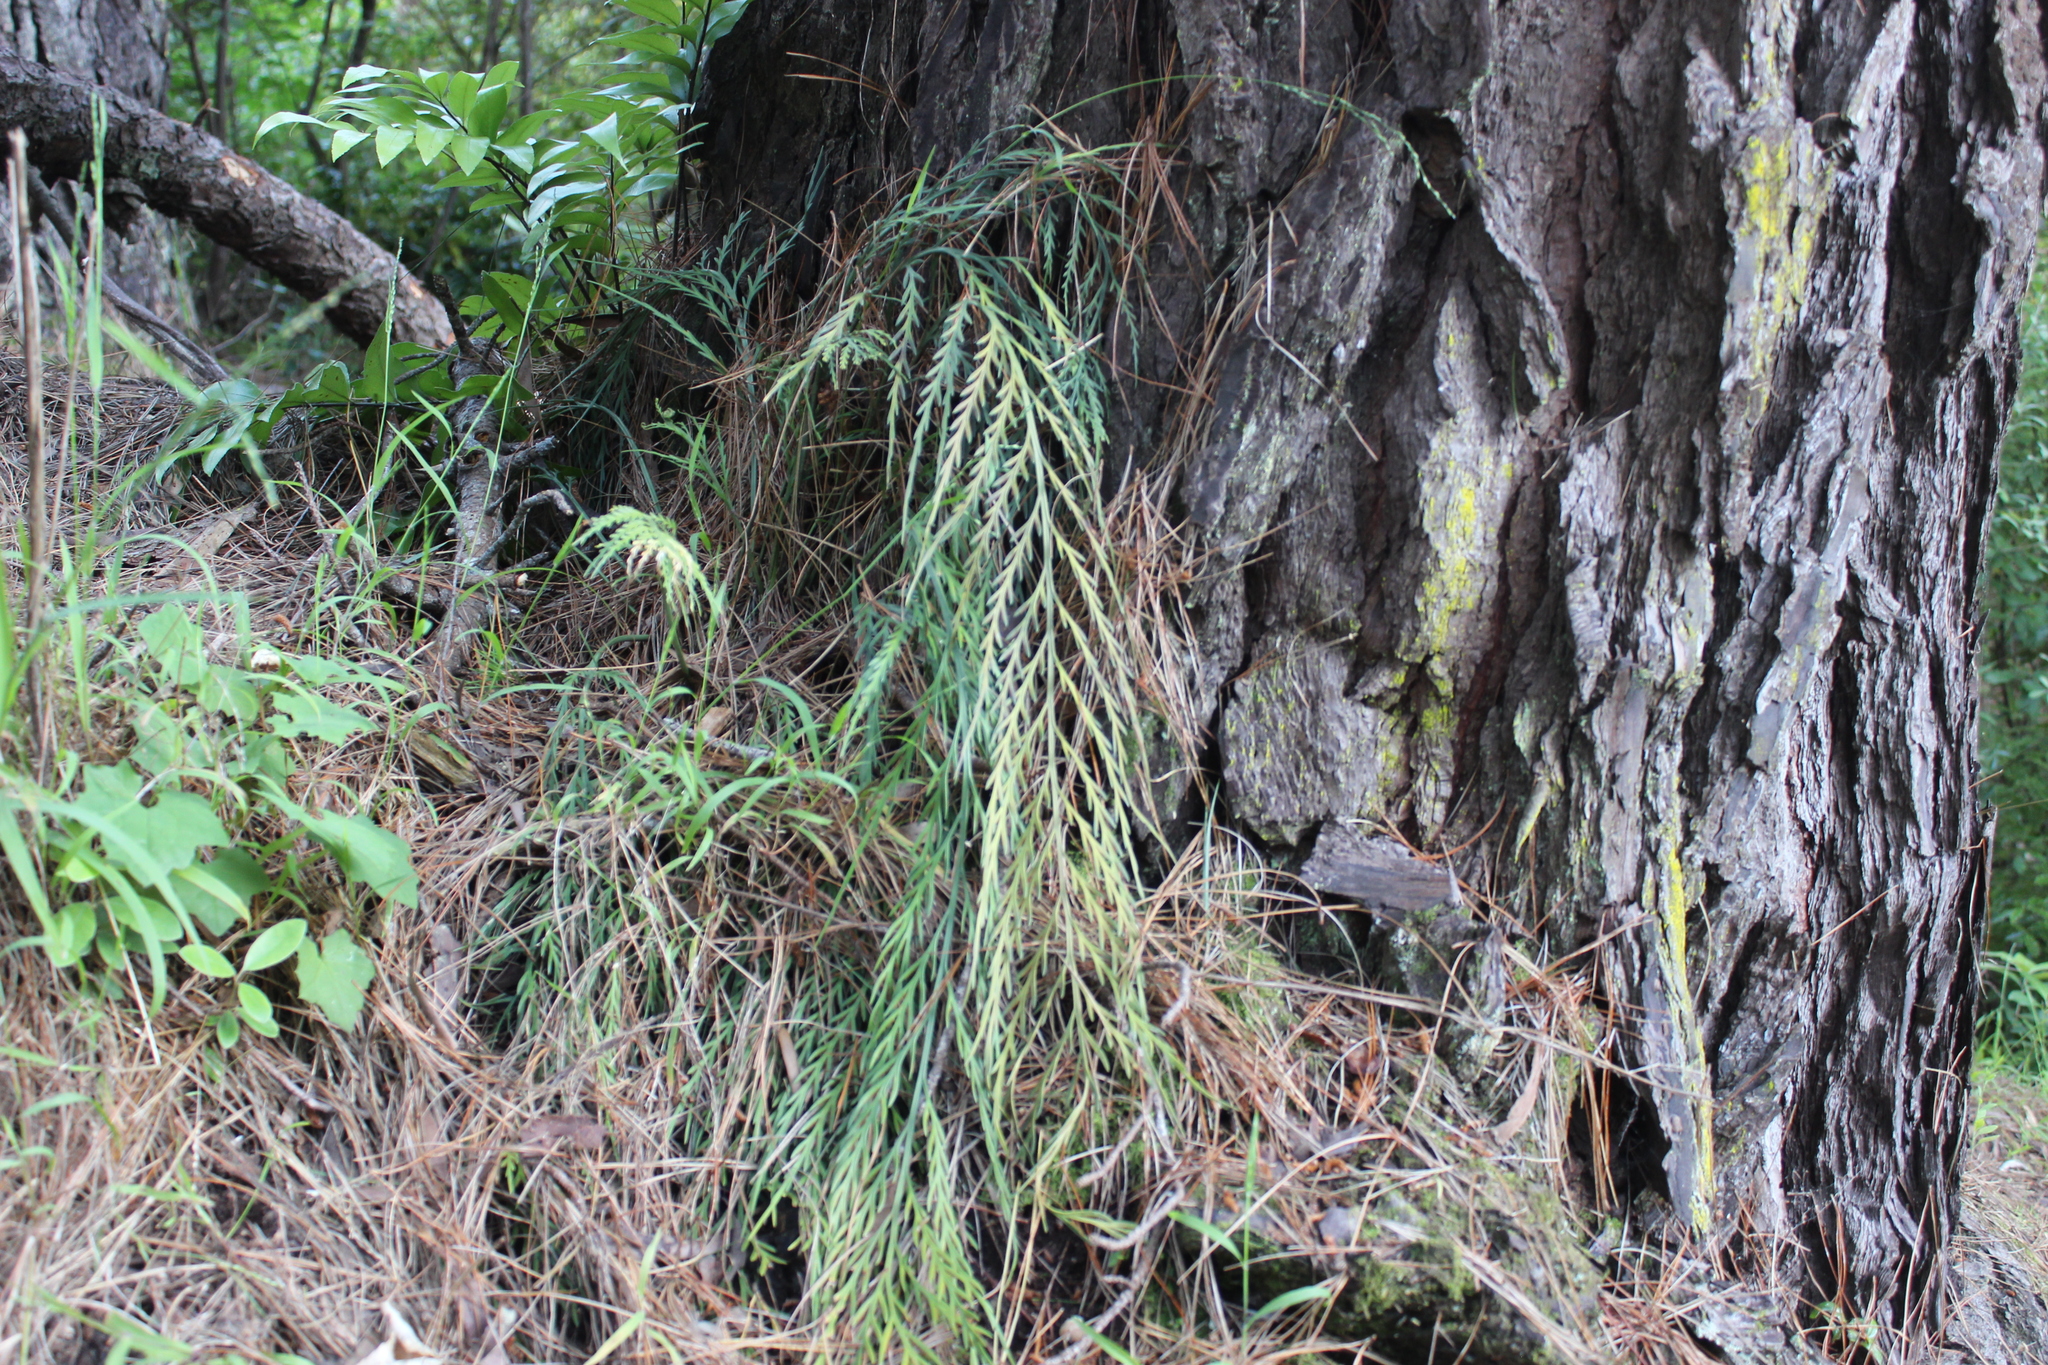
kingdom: Plantae
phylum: Tracheophyta
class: Polypodiopsida
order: Polypodiales
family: Aspleniaceae
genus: Asplenium
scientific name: Asplenium flaccidum
